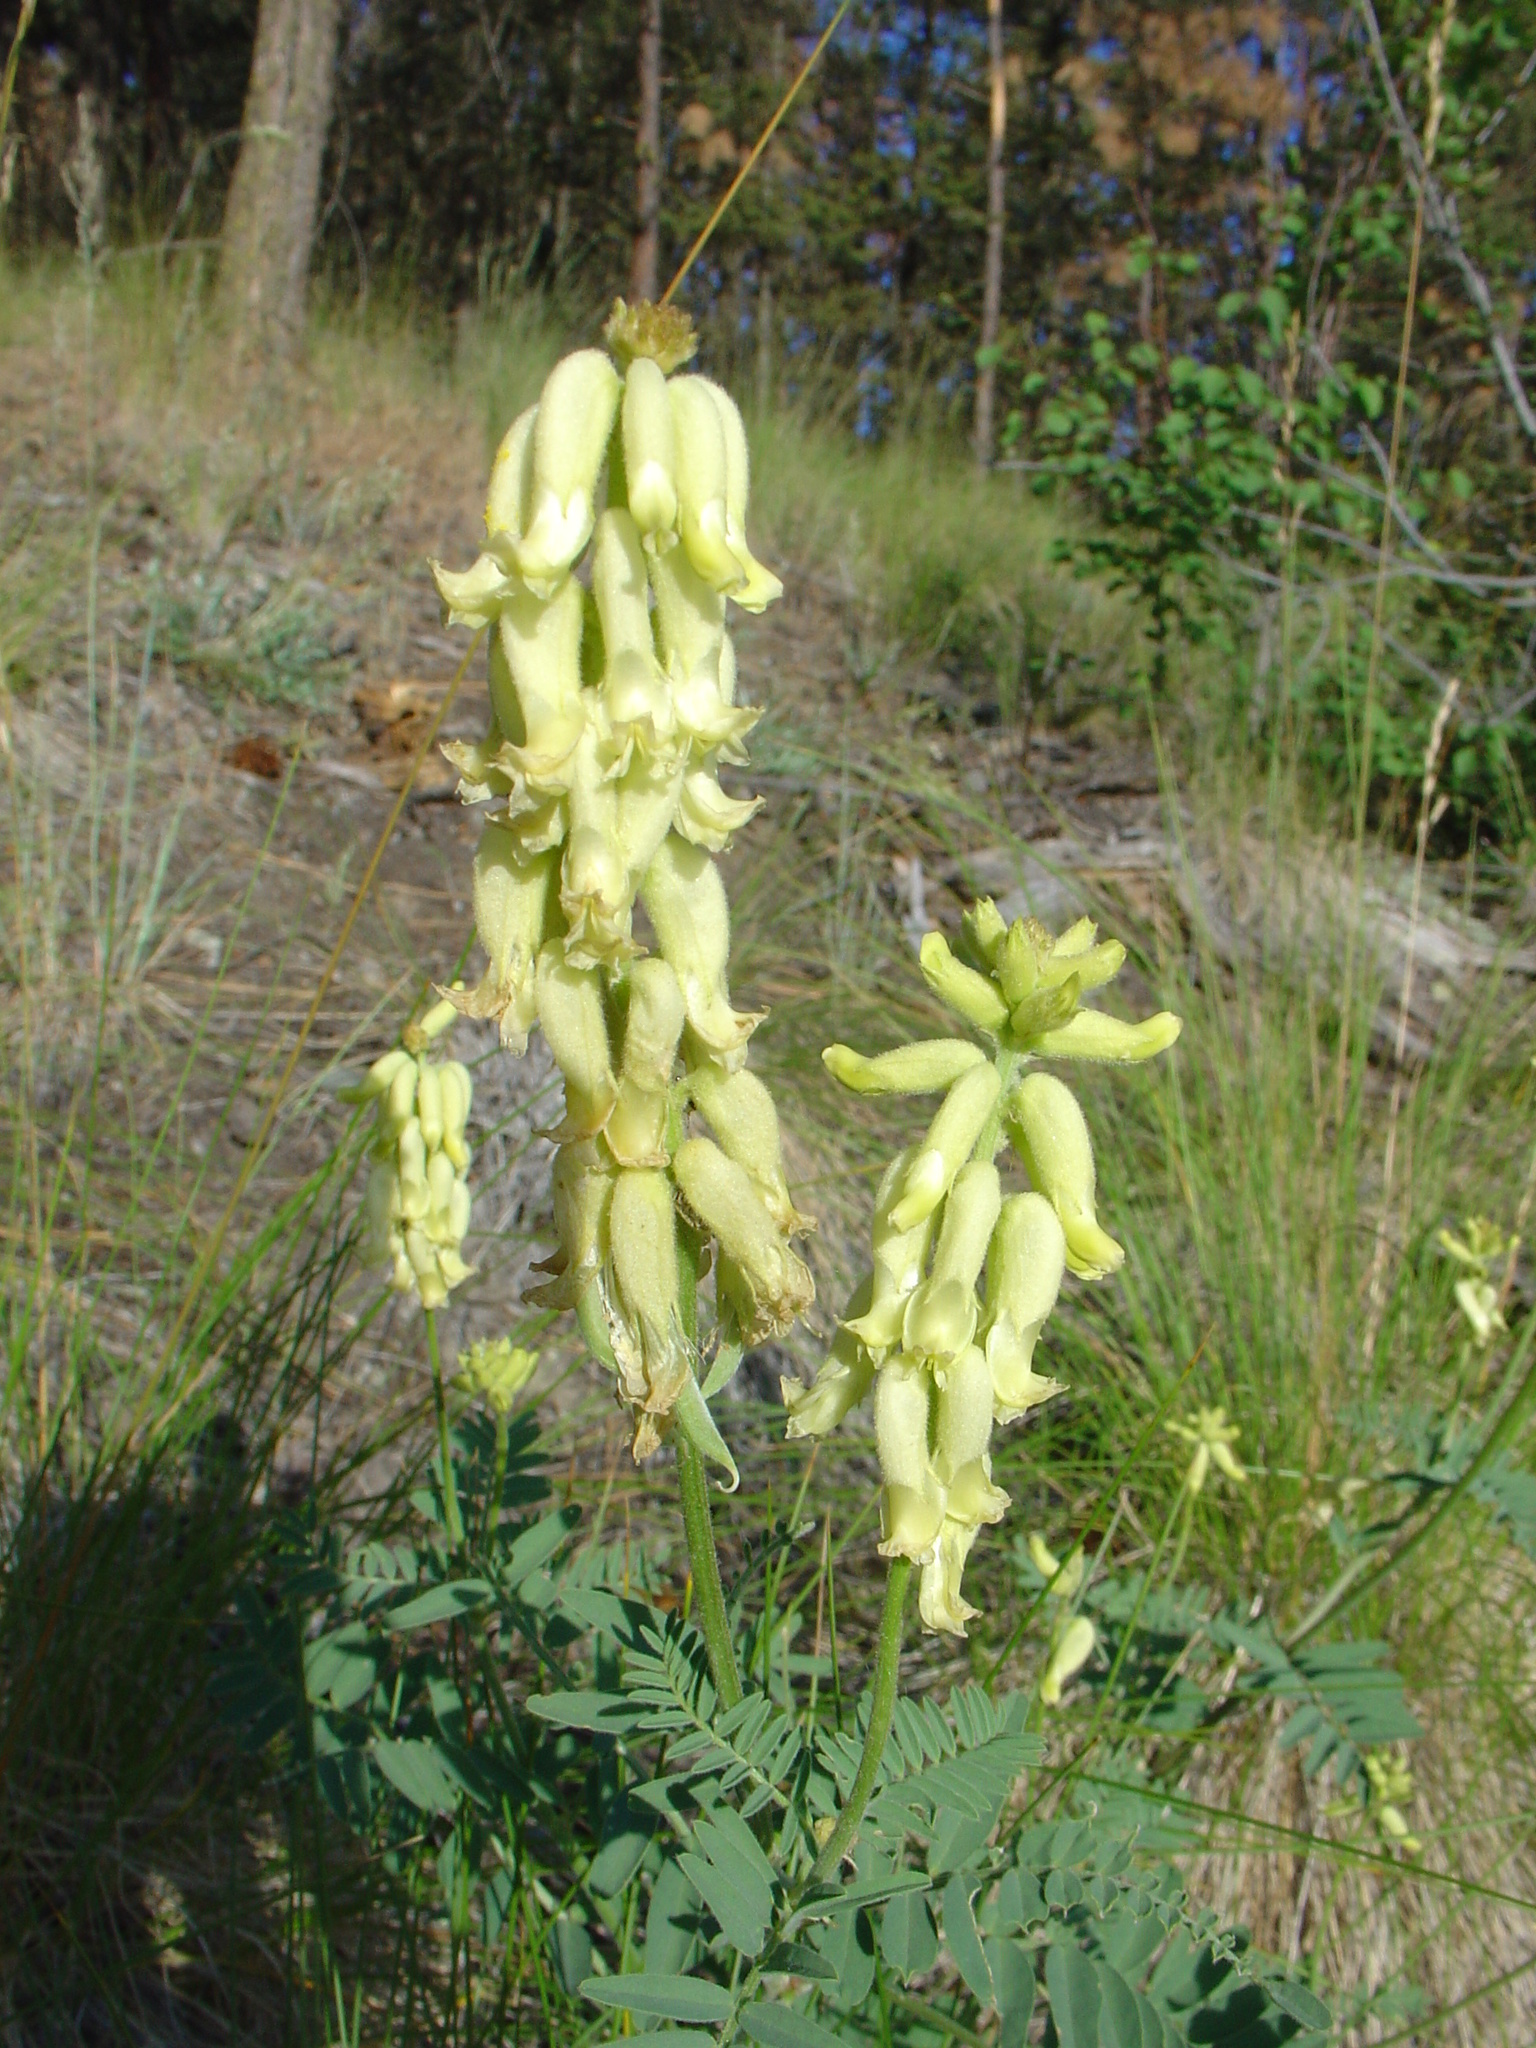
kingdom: Plantae
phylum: Tracheophyta
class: Magnoliopsida
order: Fabales
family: Fabaceae
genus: Astragalus
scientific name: Astragalus collinus
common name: Hill milk-vetch
